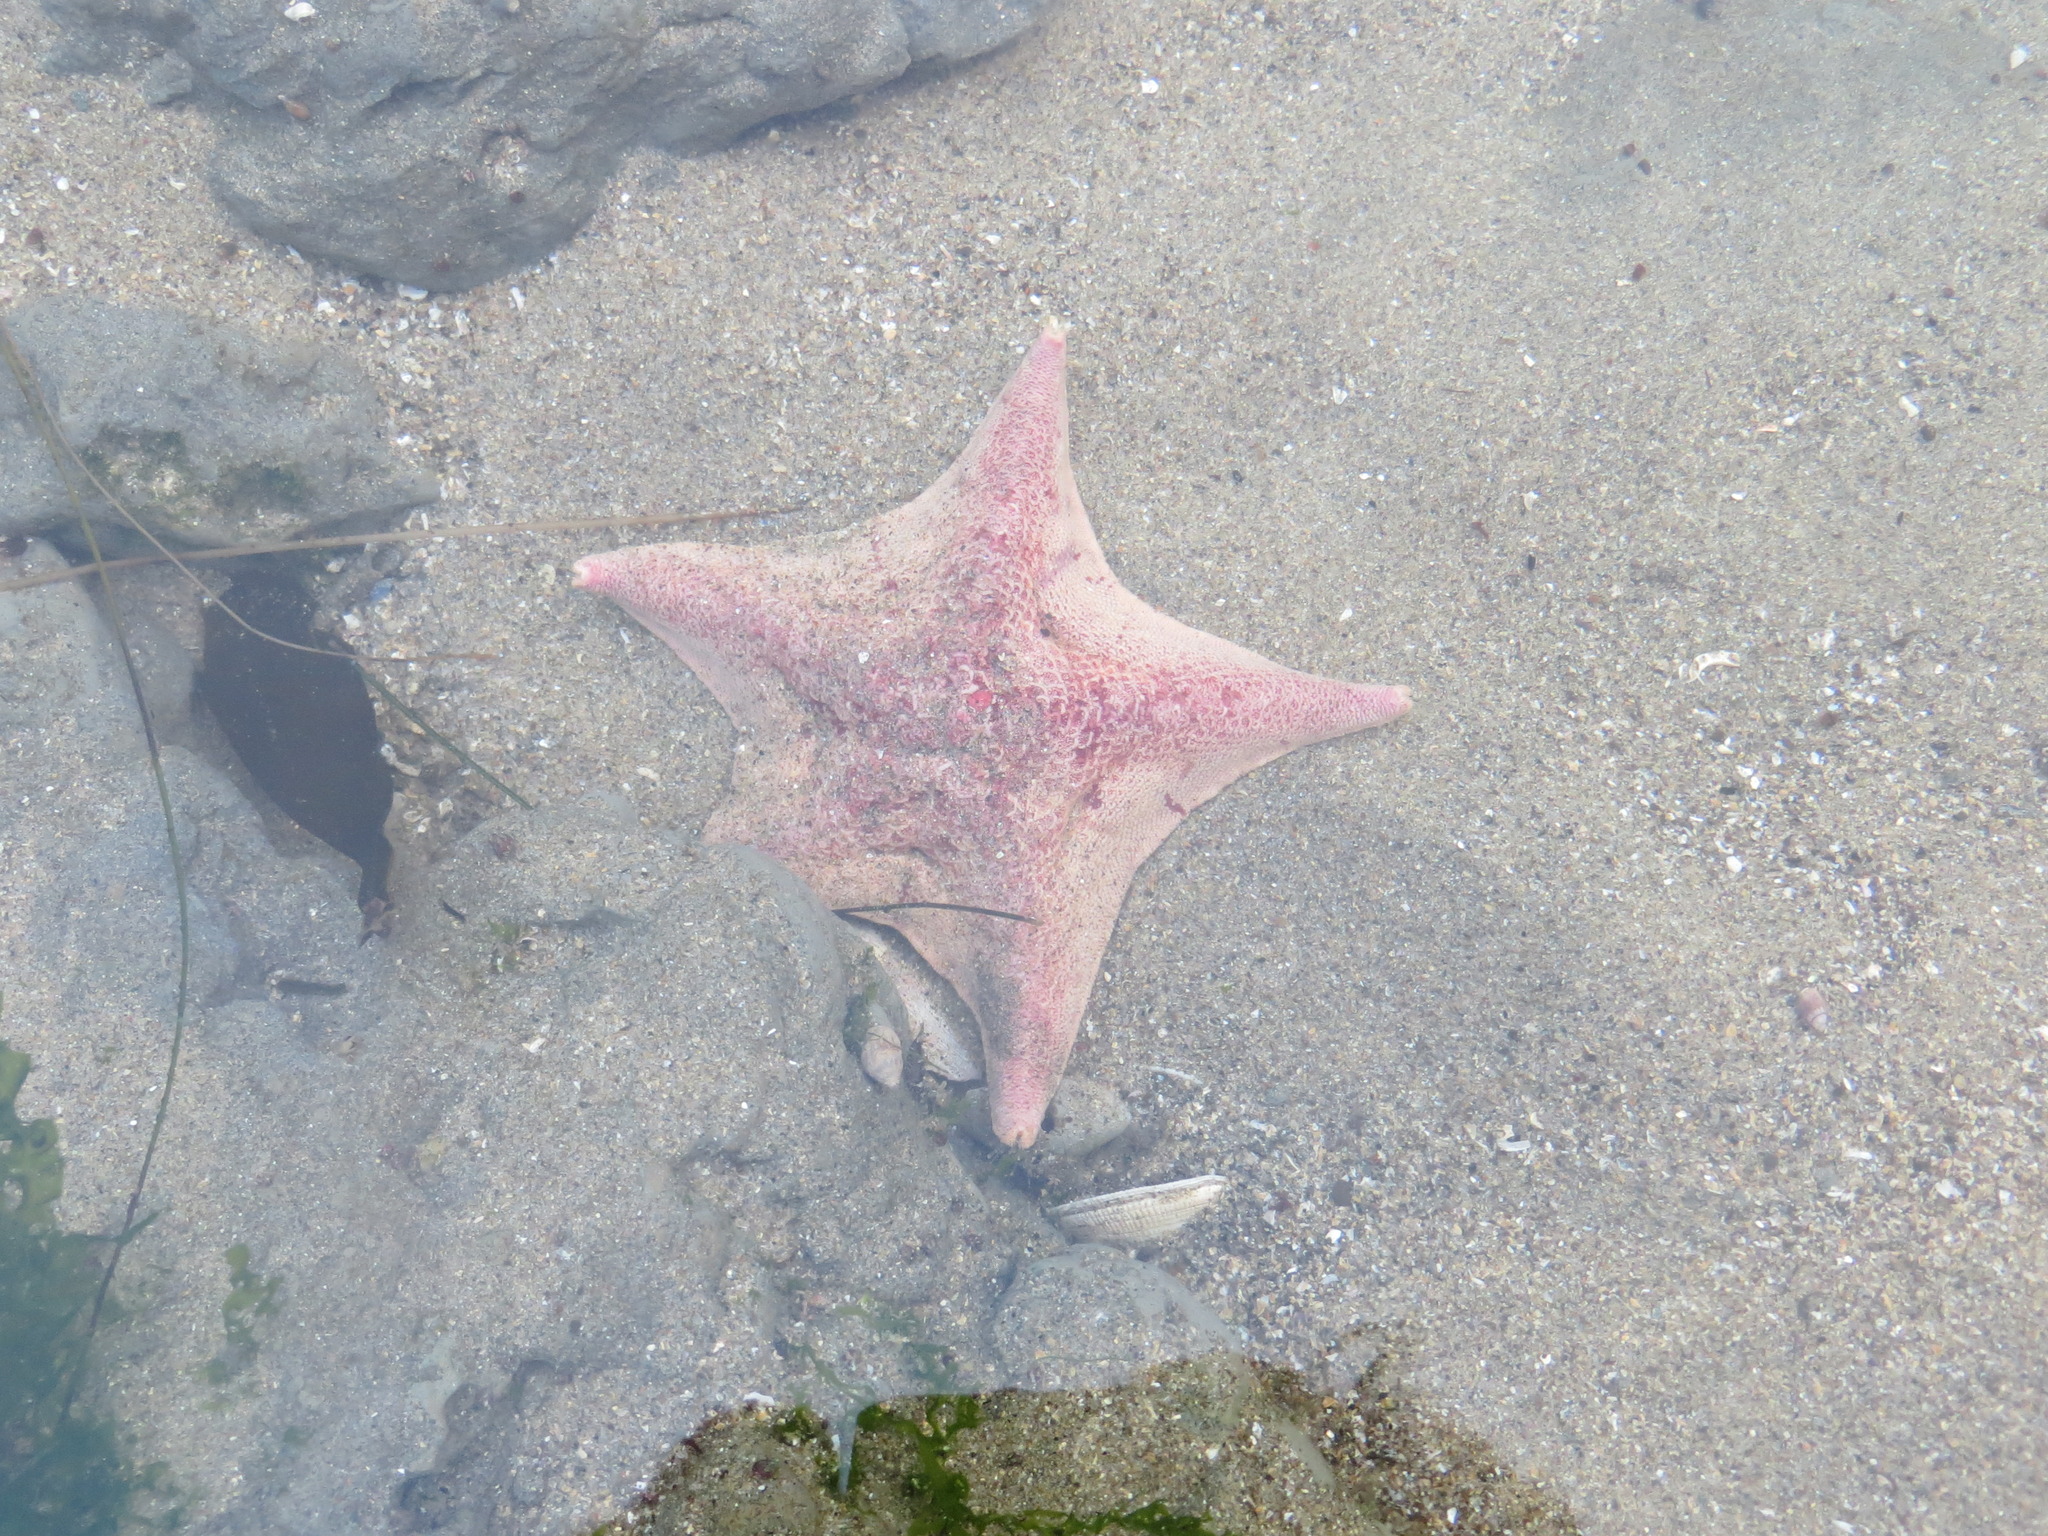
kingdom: Animalia
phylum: Echinodermata
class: Asteroidea
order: Valvatida
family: Asterinidae
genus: Patiria
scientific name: Patiria miniata
